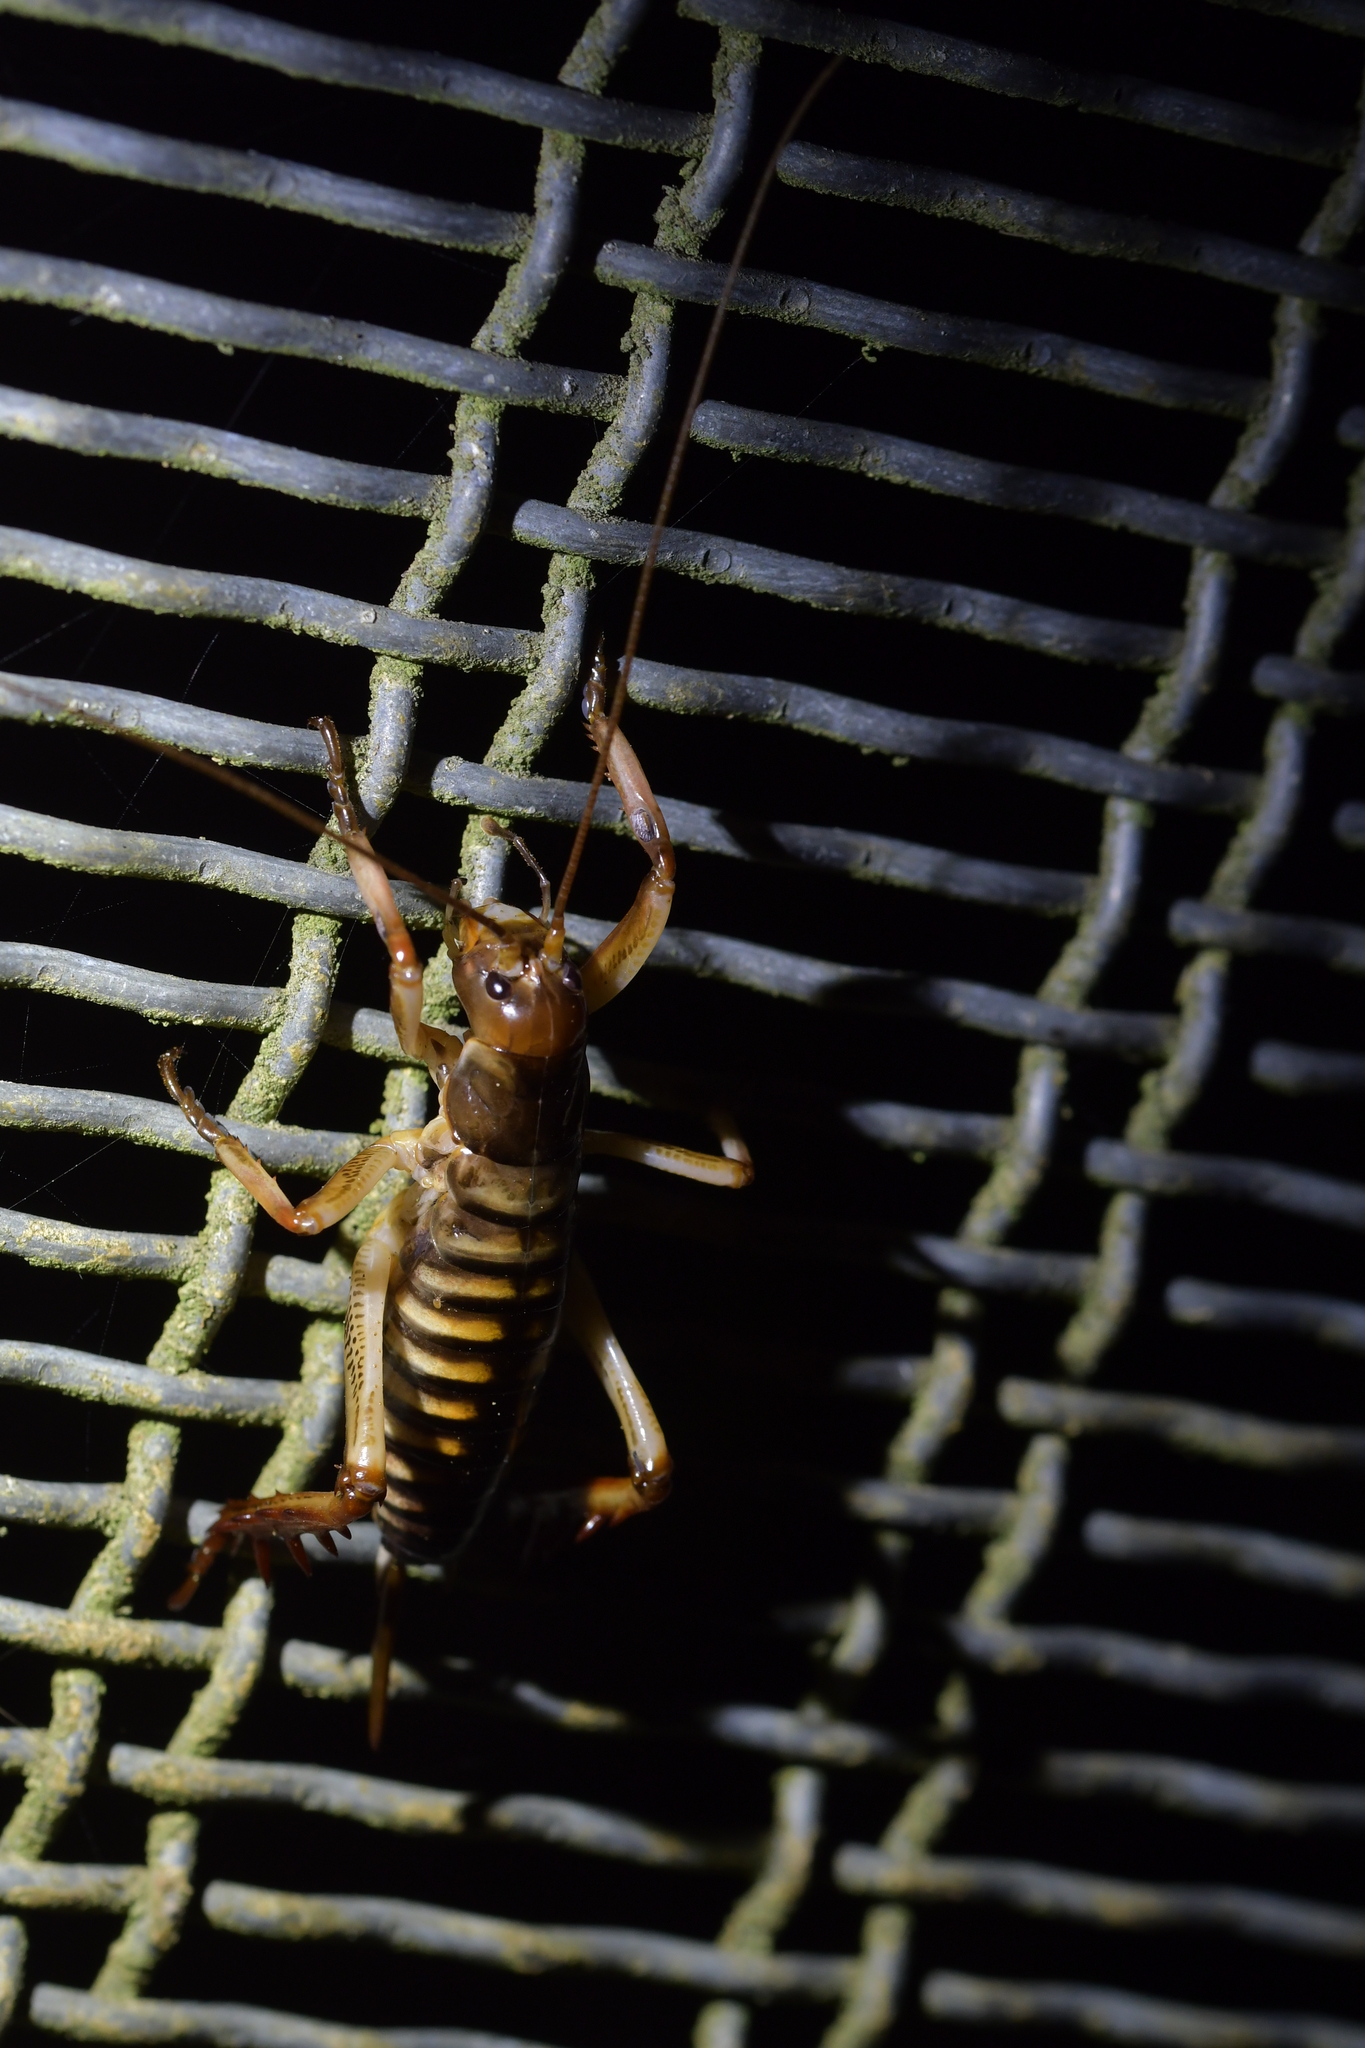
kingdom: Animalia
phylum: Arthropoda
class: Insecta
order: Orthoptera
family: Anostostomatidae
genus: Hemideina
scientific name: Hemideina crassidens
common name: Wellington tree weta
